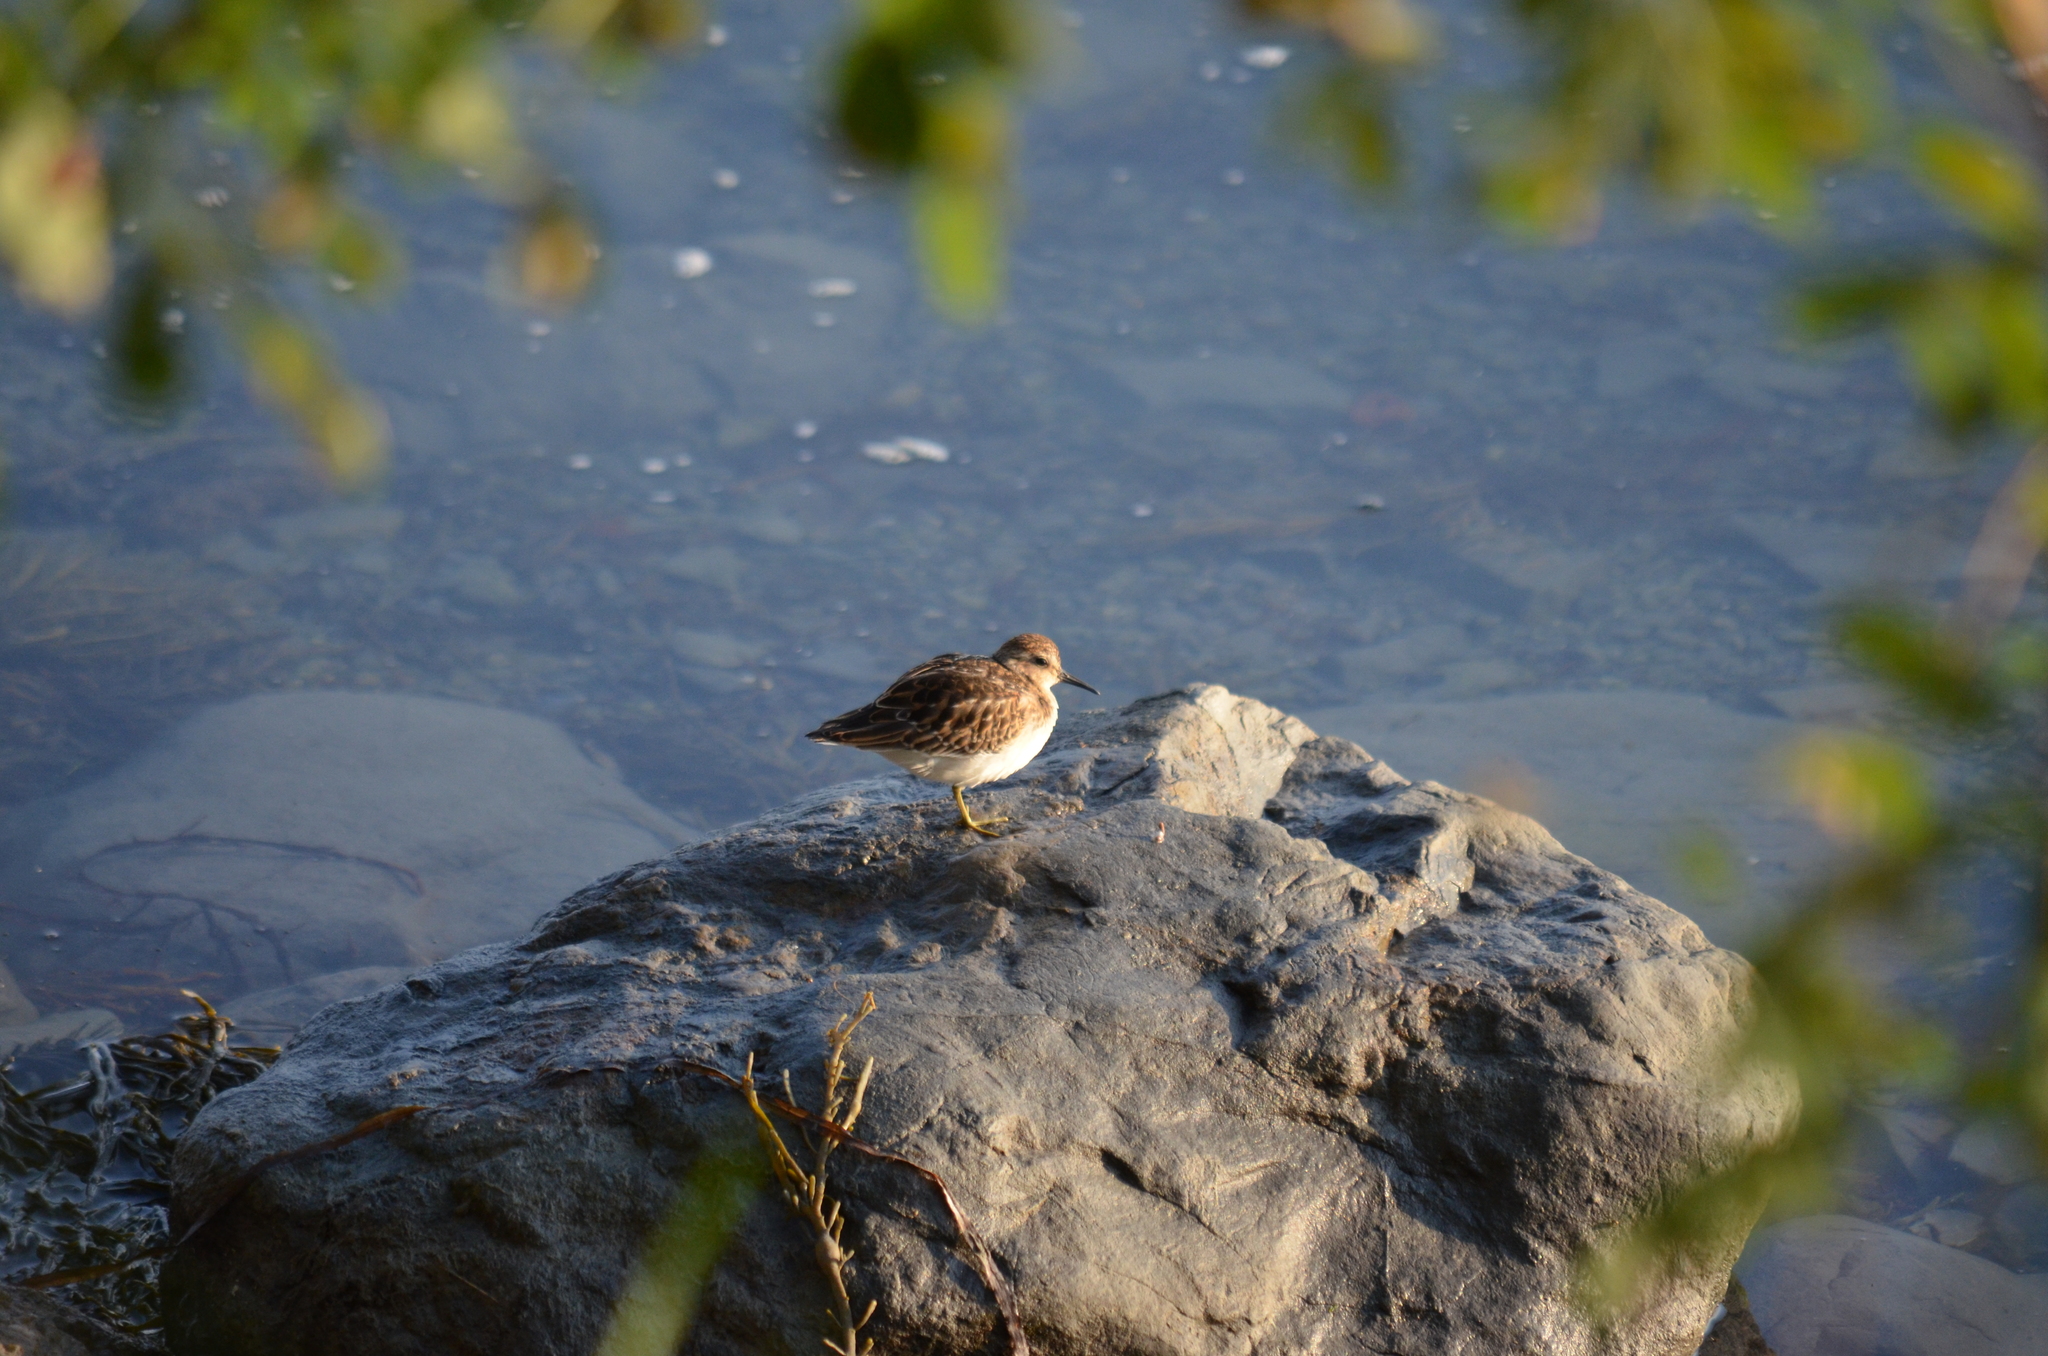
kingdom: Animalia
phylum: Chordata
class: Aves
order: Charadriiformes
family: Scolopacidae
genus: Calidris
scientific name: Calidris minutilla
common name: Least sandpiper
